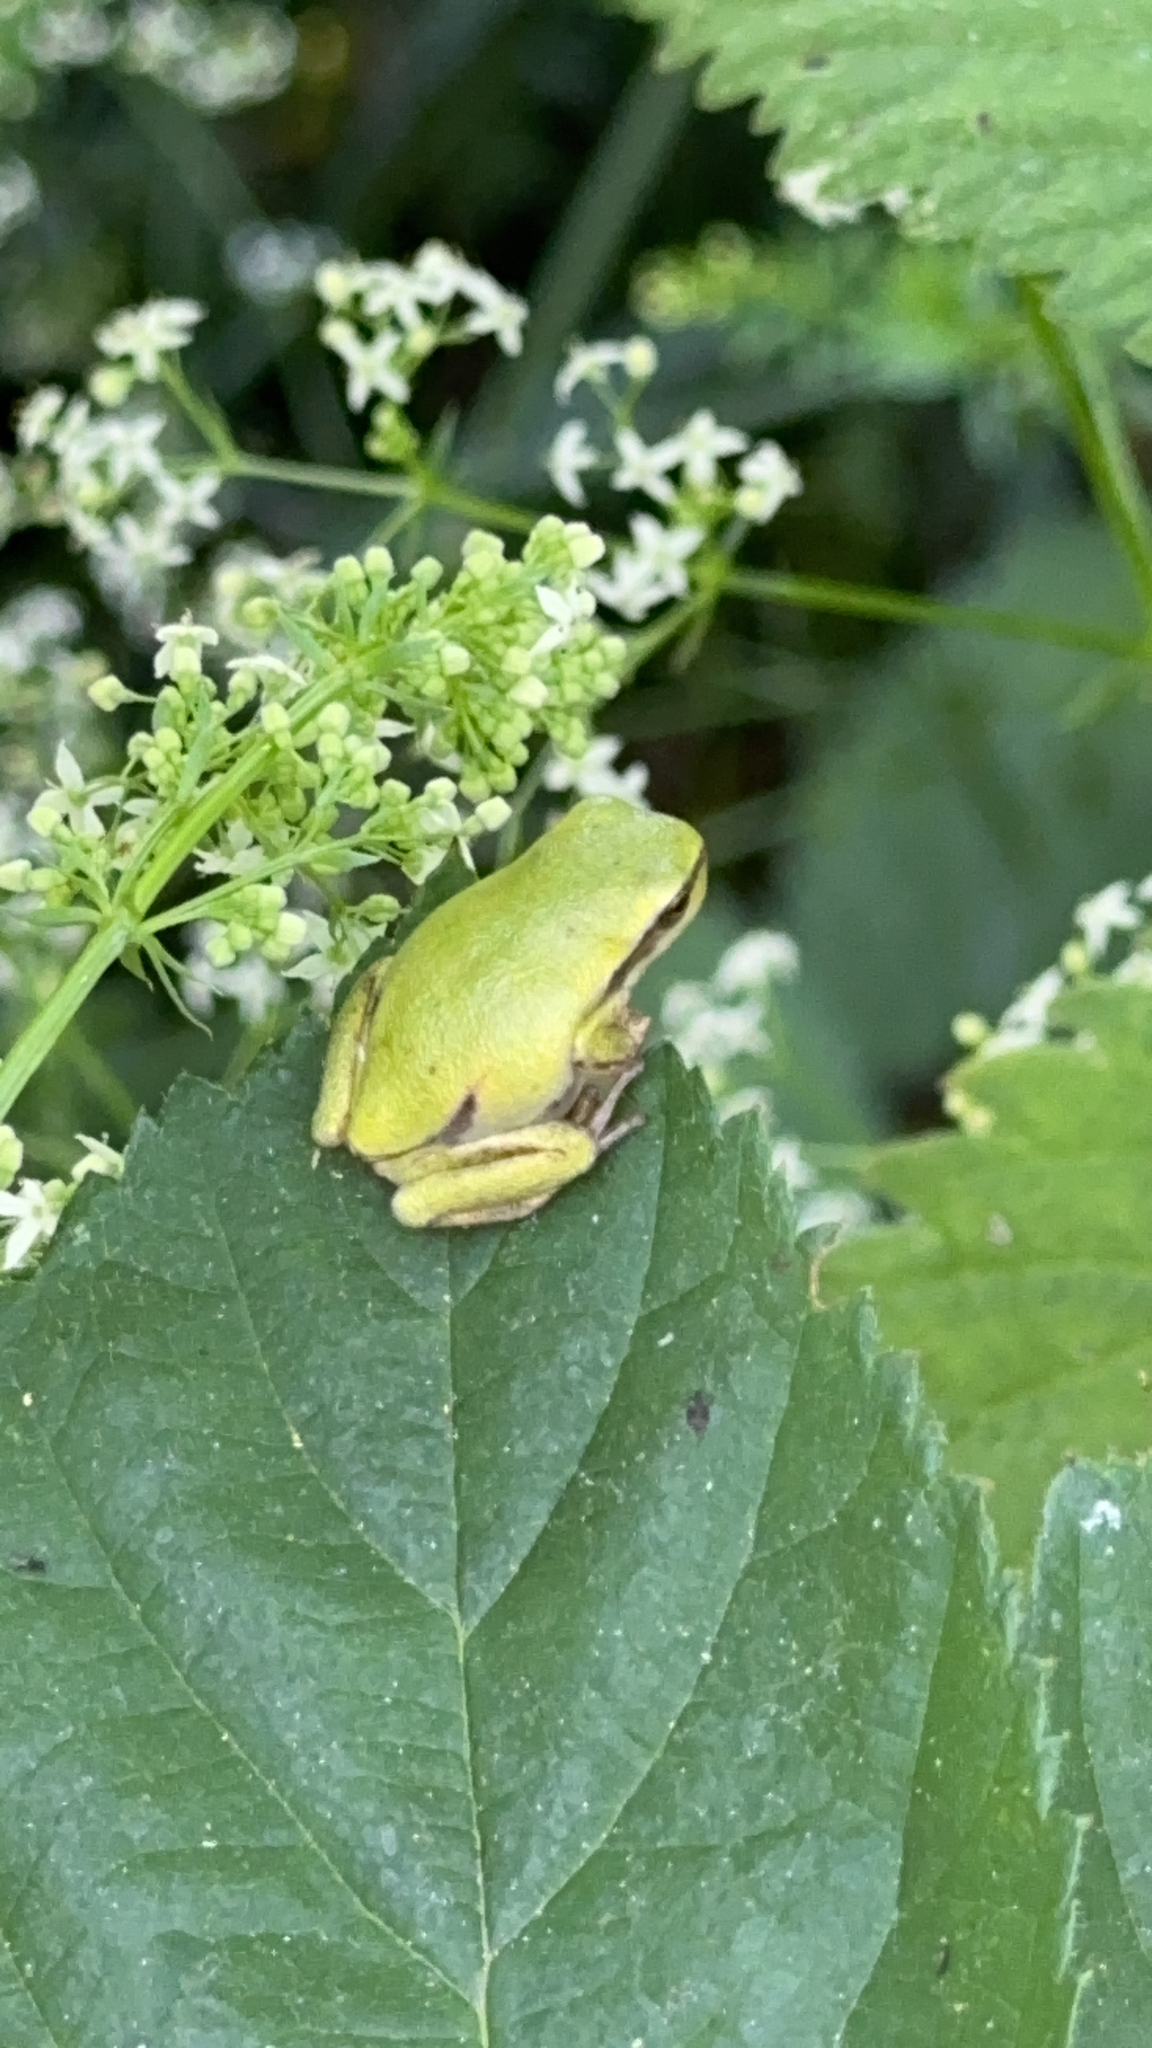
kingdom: Animalia
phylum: Chordata
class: Amphibia
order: Anura
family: Hylidae
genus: Hyla
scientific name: Hyla arborea
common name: Common tree frog
